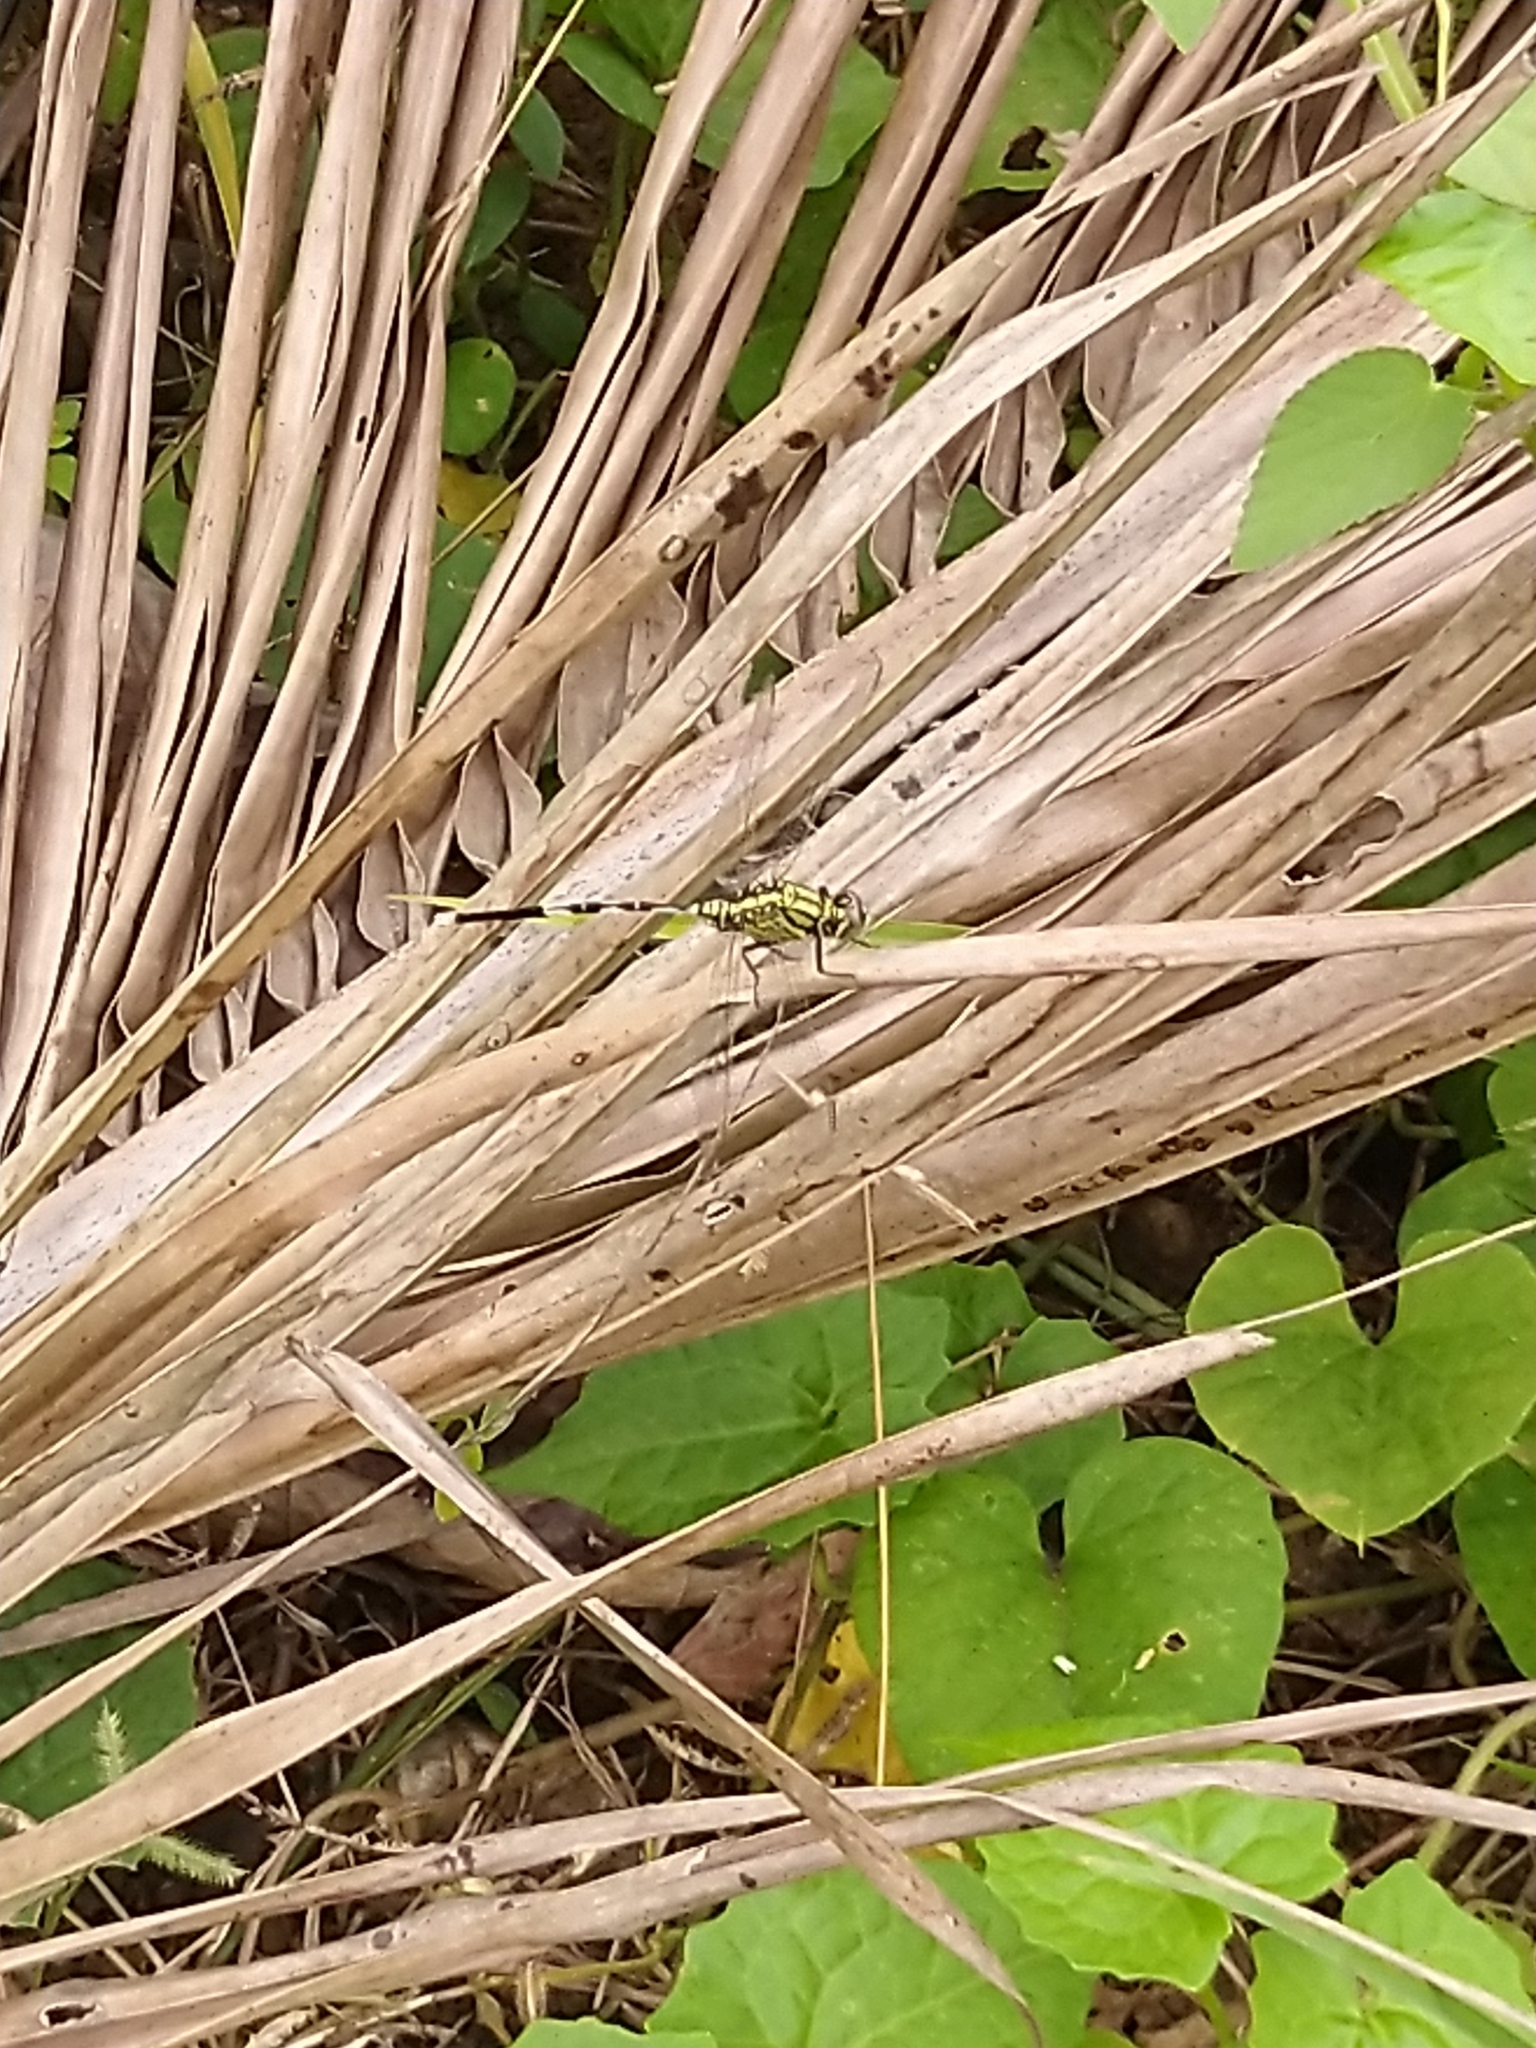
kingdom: Animalia
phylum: Arthropoda
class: Insecta
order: Odonata
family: Libellulidae
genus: Orthetrum
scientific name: Orthetrum sabina
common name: Slender skimmer
